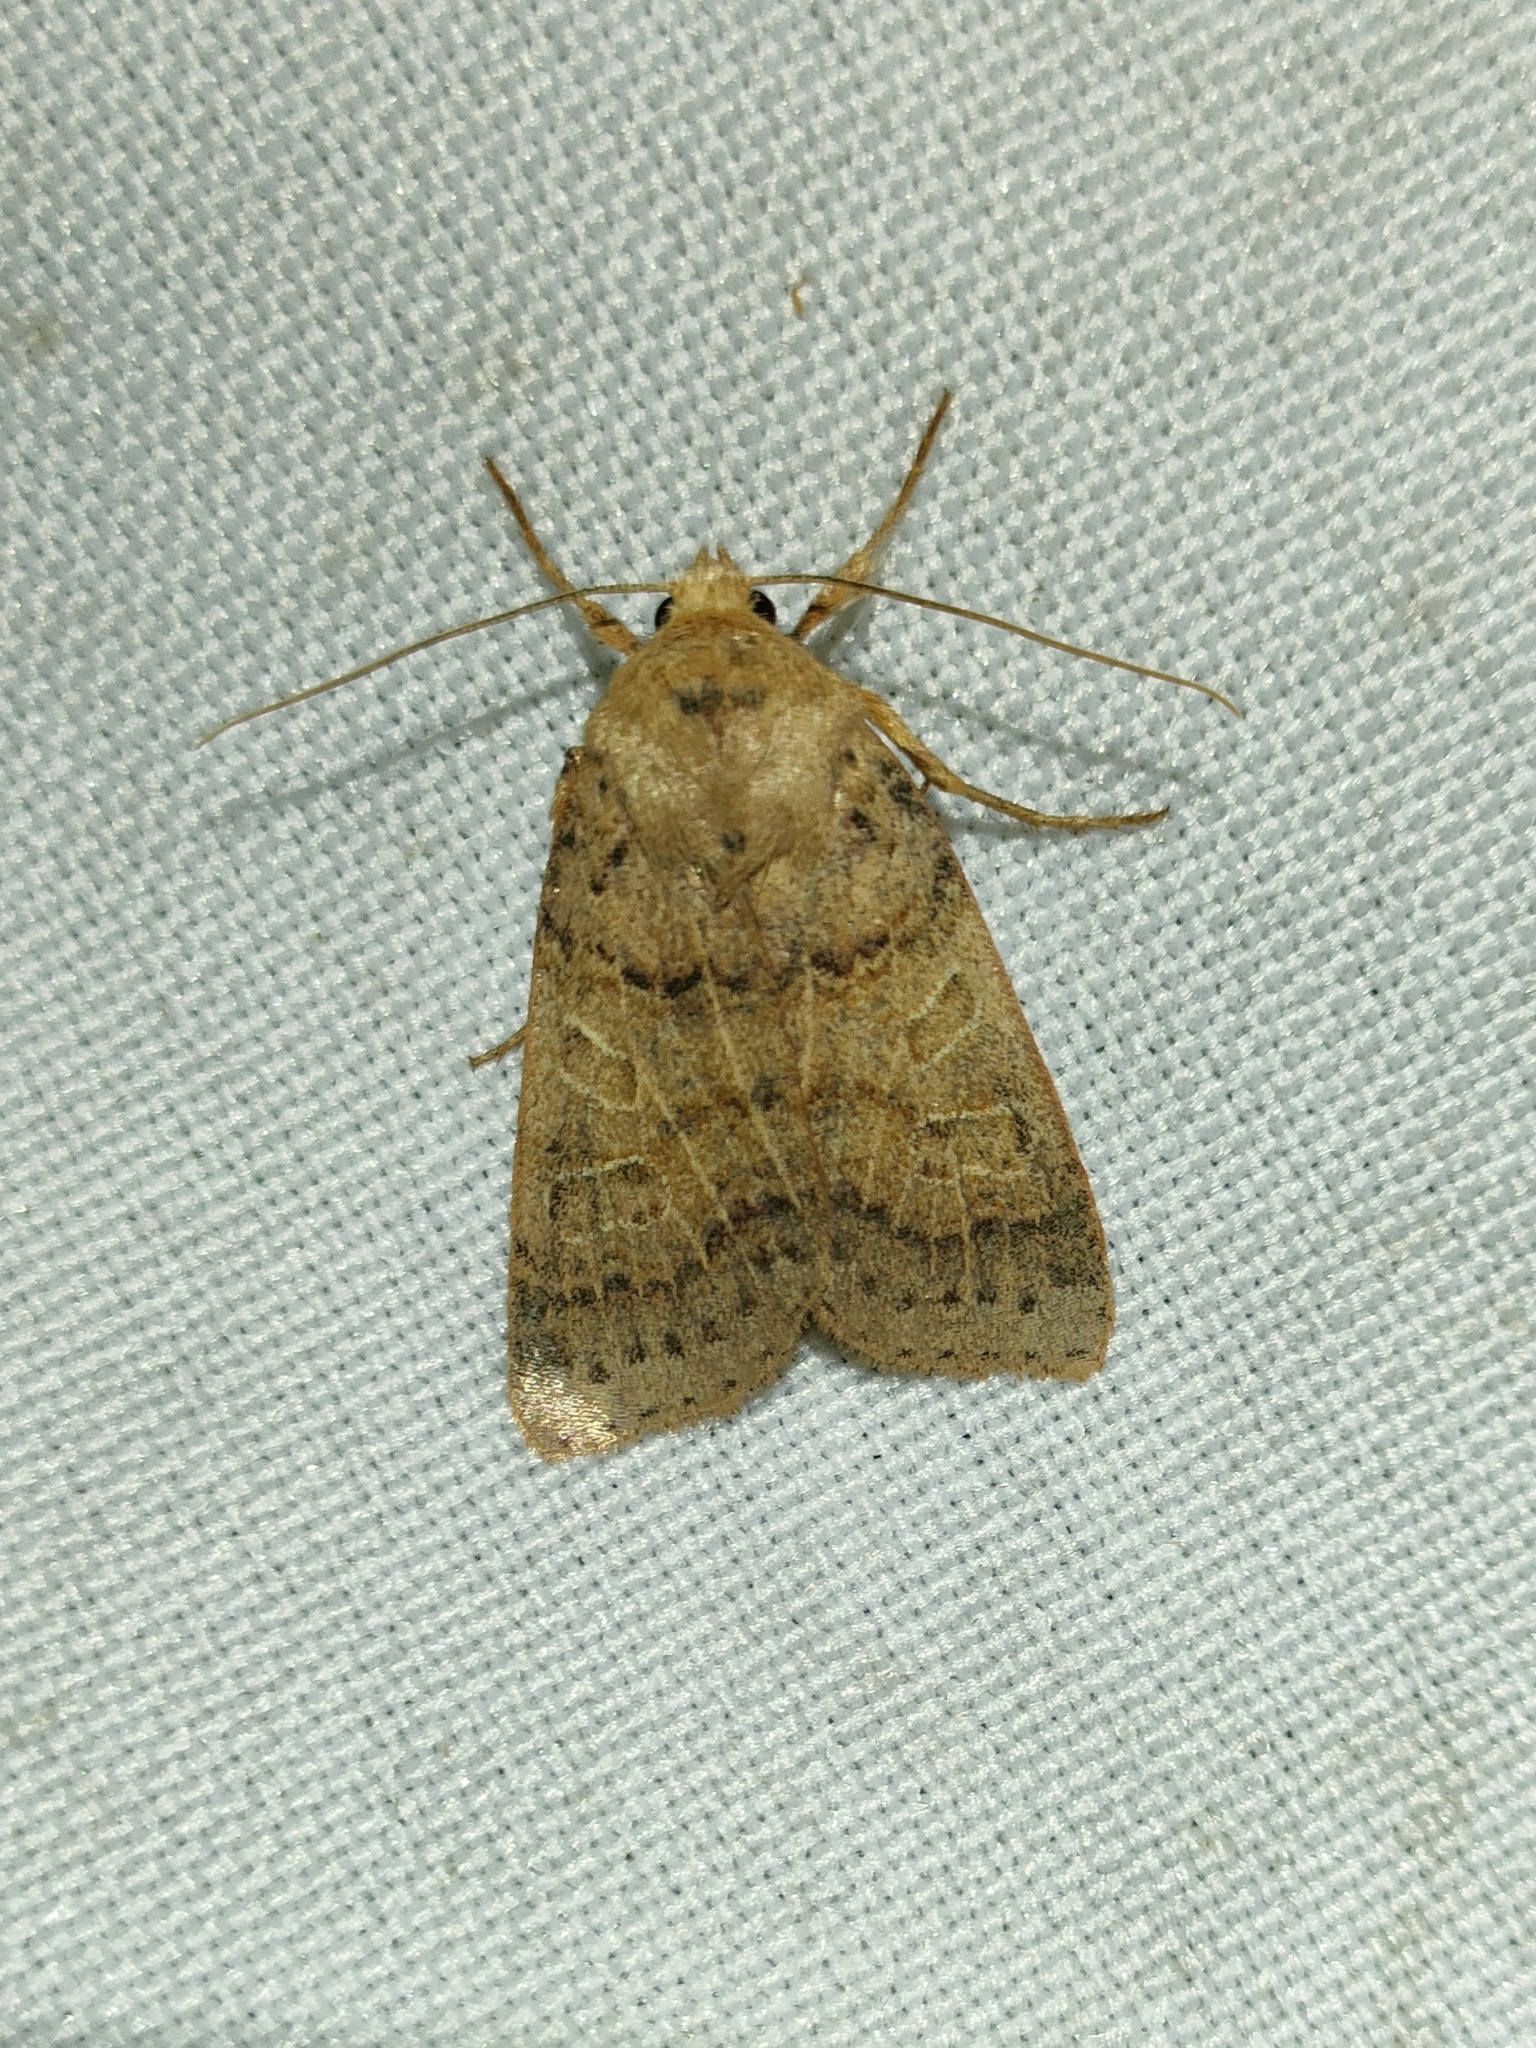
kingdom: Animalia
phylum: Arthropoda
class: Insecta
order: Lepidoptera
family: Noctuidae
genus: Agrochola
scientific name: Agrochola pistacinoides
